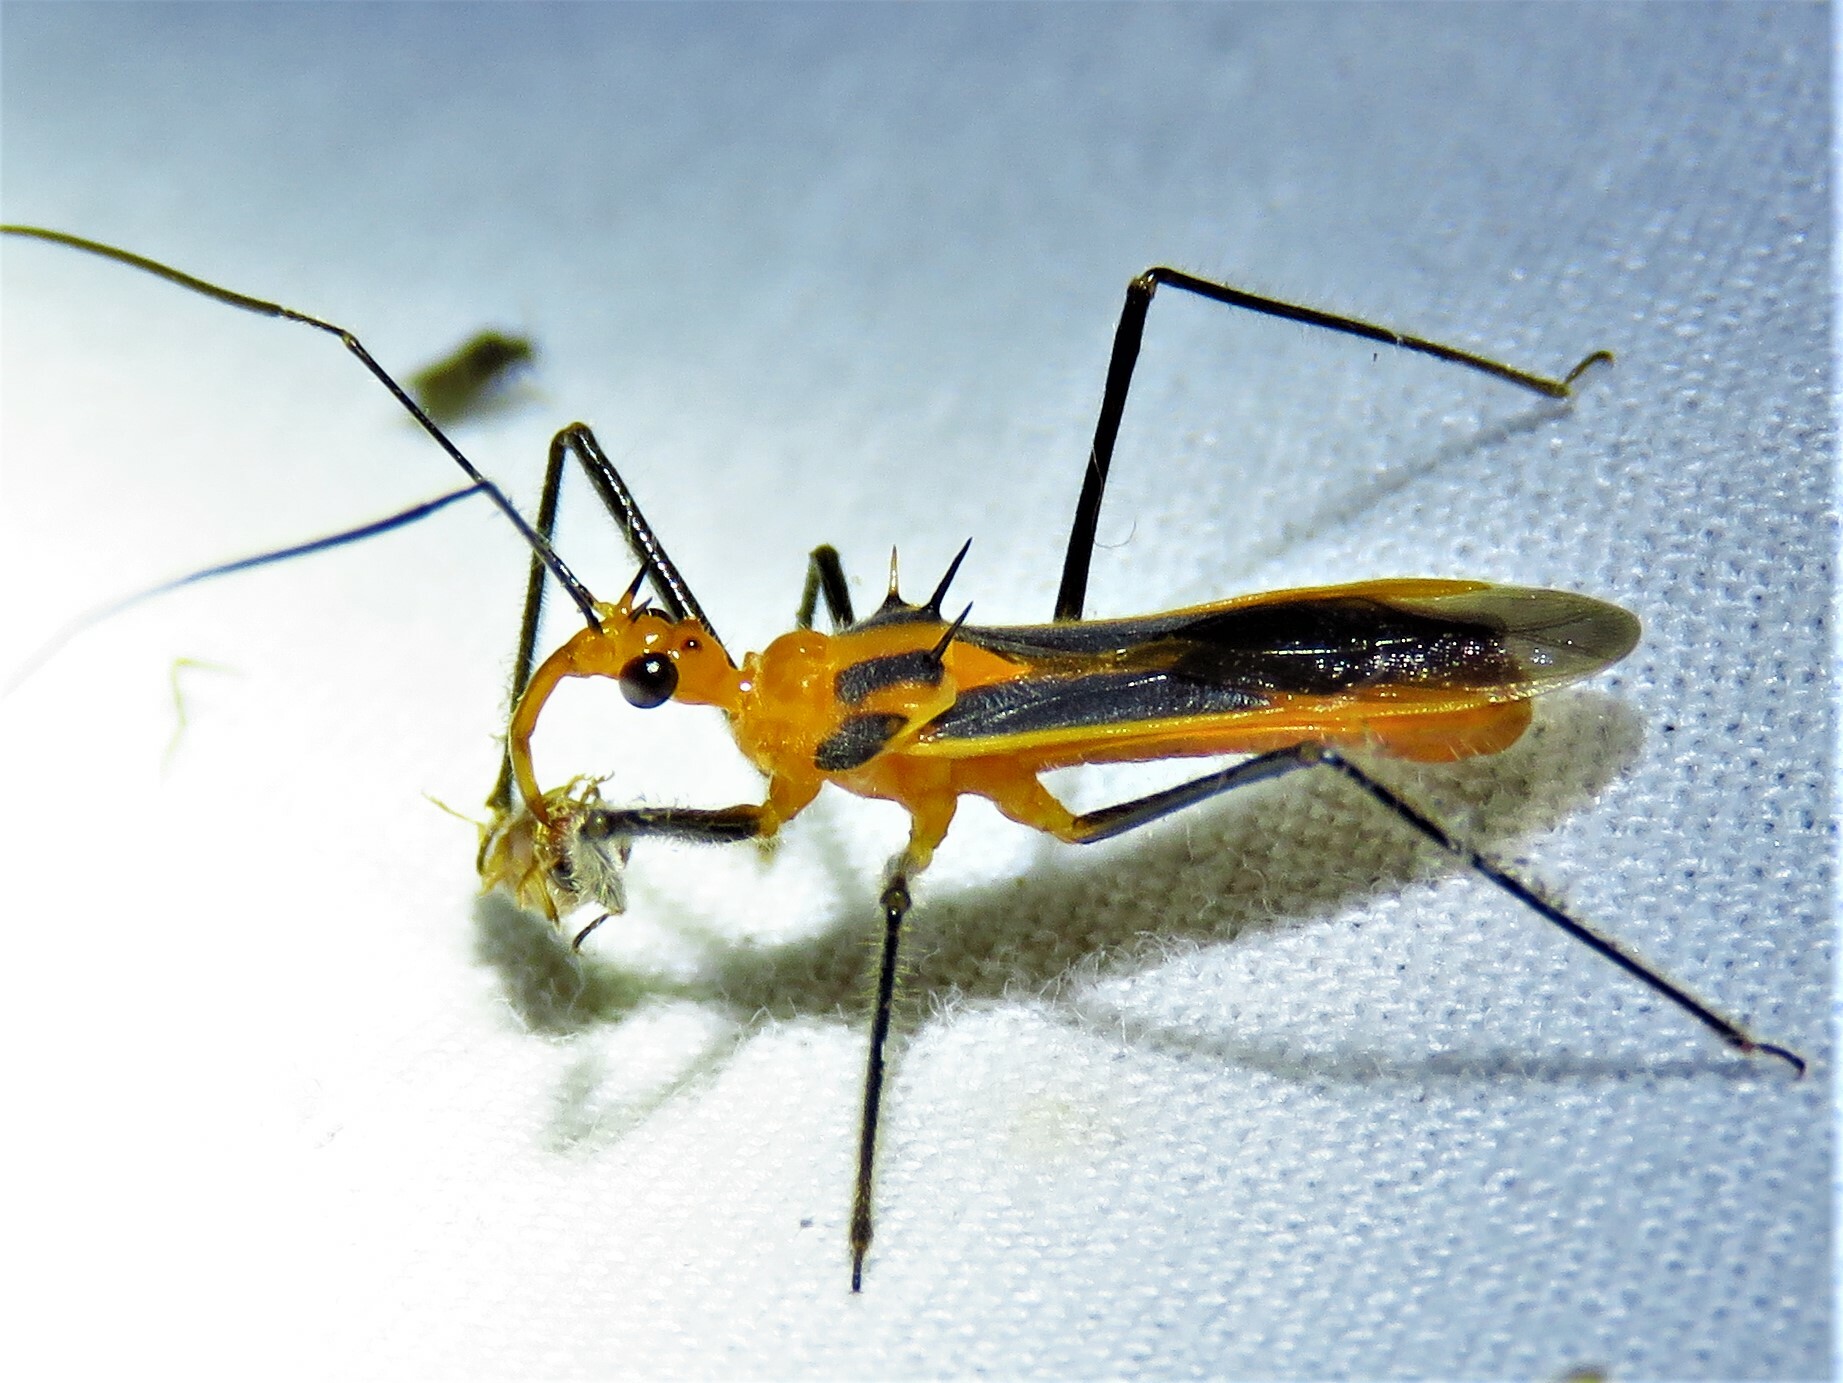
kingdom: Animalia
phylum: Arthropoda
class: Insecta
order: Hemiptera
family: Reduviidae
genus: Repipta
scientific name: Repipta taurus
